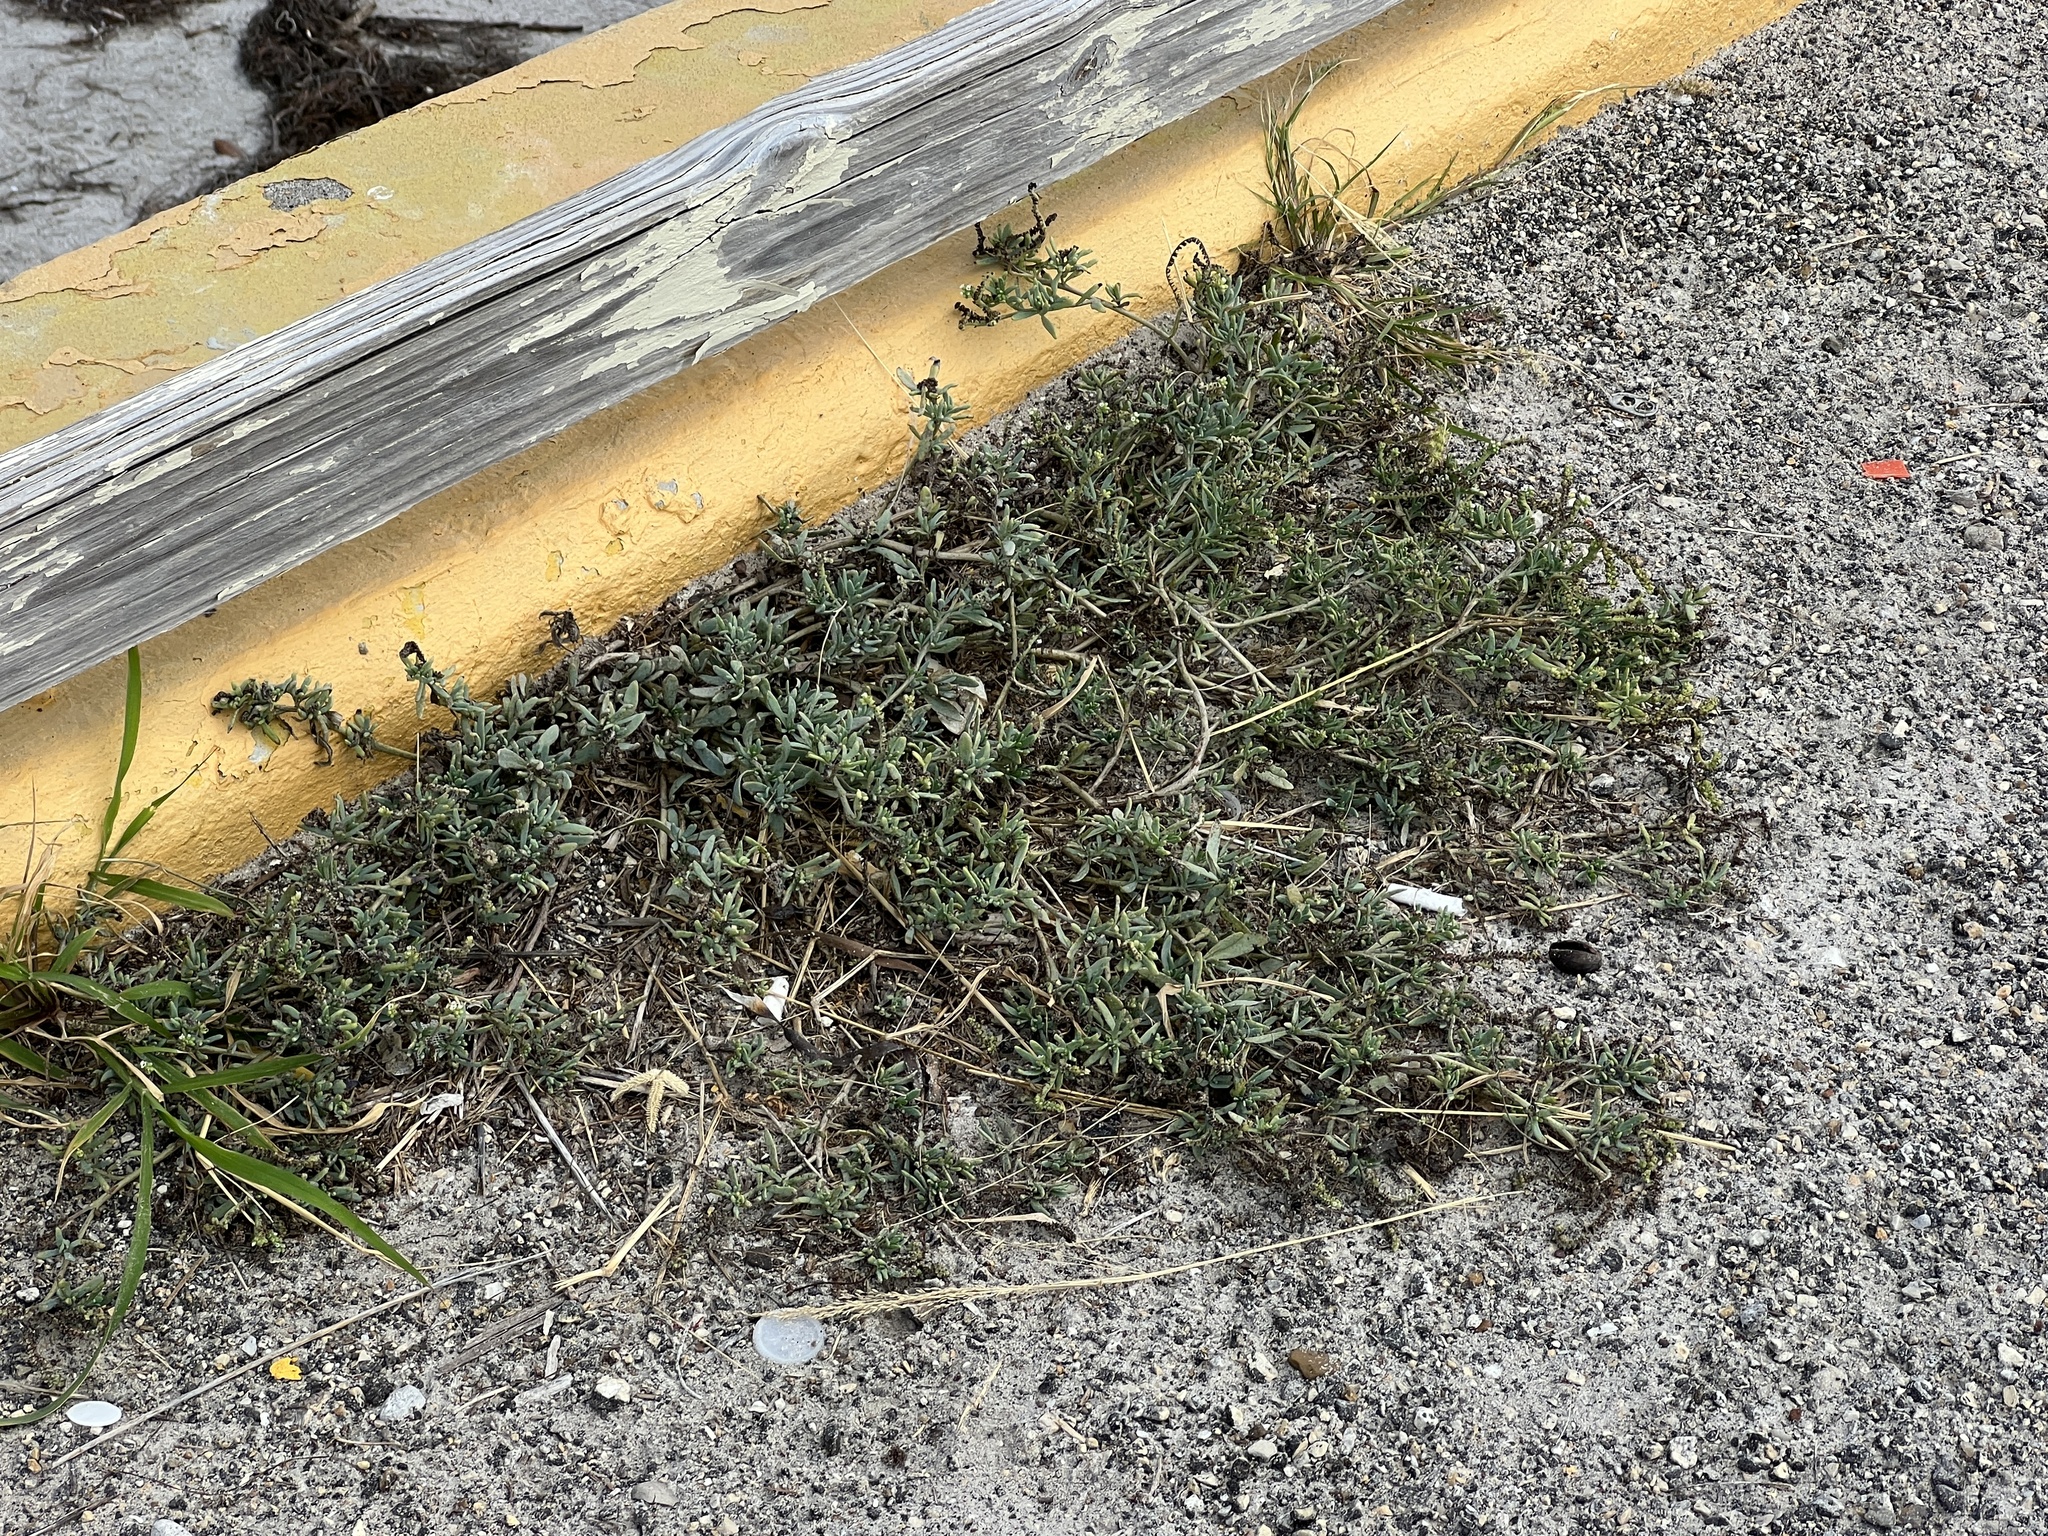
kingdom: Plantae
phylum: Tracheophyta
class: Magnoliopsida
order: Boraginales
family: Heliotropiaceae
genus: Heliotropium
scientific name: Heliotropium curassavicum
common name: Seaside heliotrope
